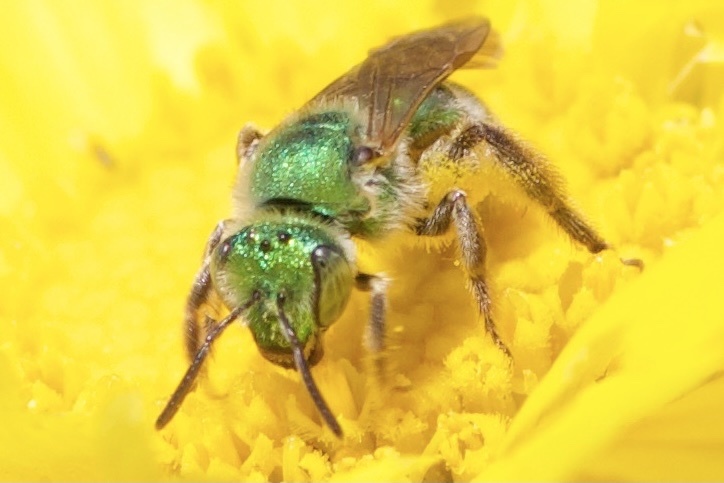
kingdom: Animalia
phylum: Arthropoda
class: Insecta
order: Hymenoptera
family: Halictidae
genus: Agapostemon
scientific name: Agapostemon texanus
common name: Texas striped sweat bee
